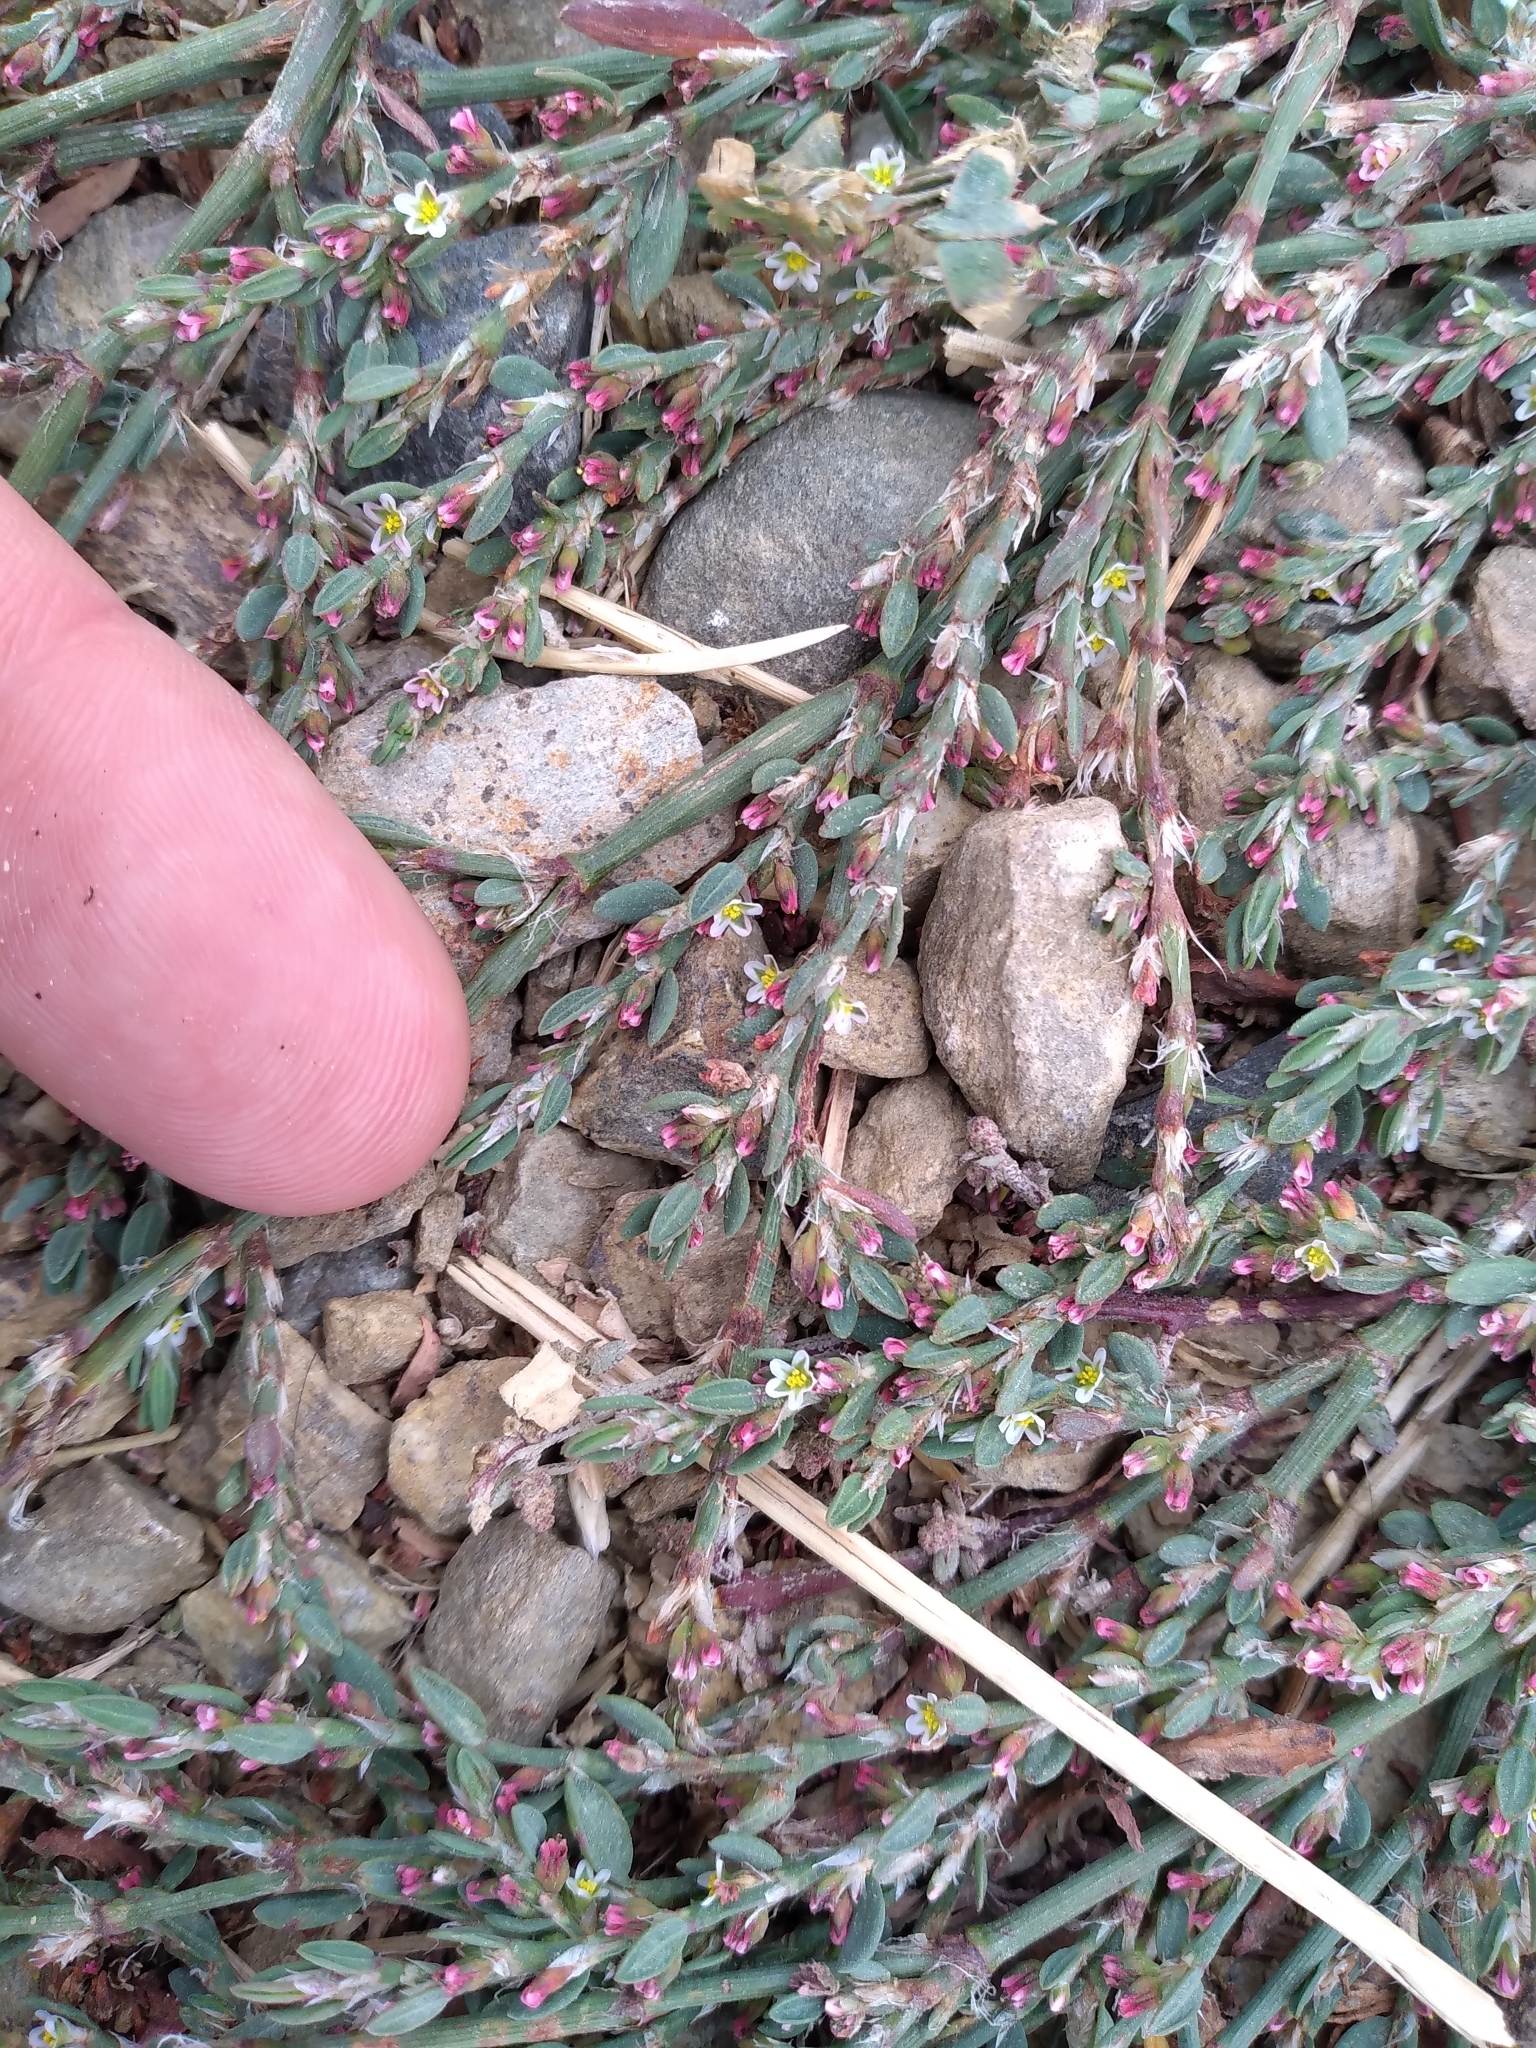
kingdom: Plantae
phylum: Tracheophyta
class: Magnoliopsida
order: Caryophyllales
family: Polygonaceae
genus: Polygonum
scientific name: Polygonum arenastrum
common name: Equal-leaved knotgrass
